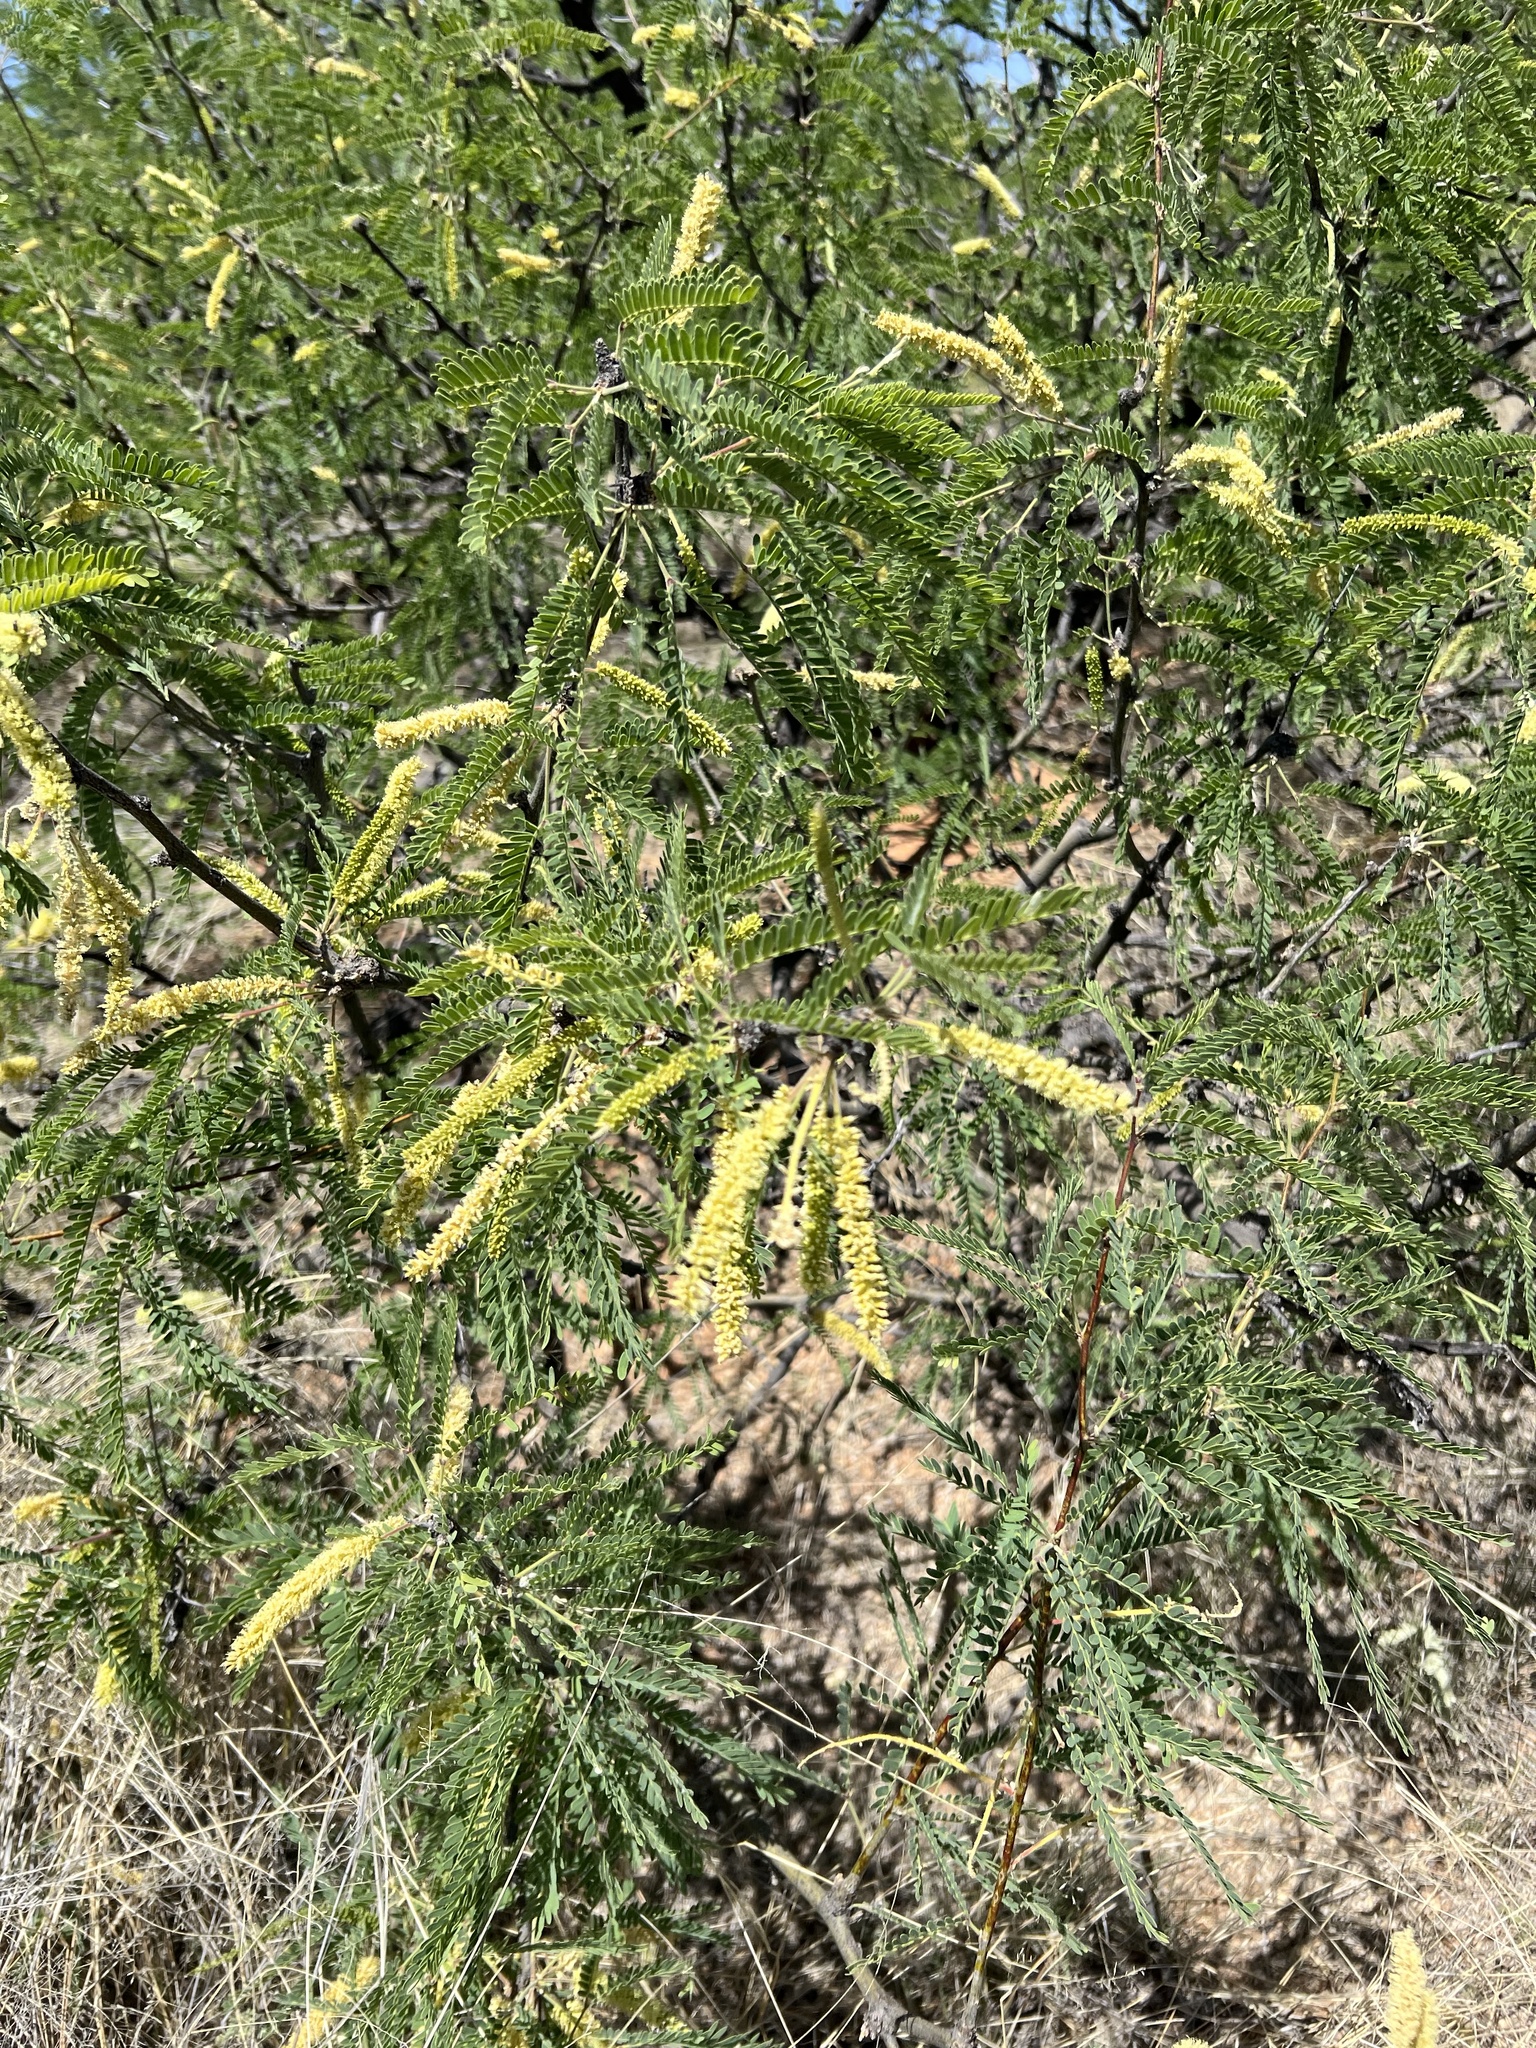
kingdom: Plantae
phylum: Tracheophyta
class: Magnoliopsida
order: Fabales
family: Fabaceae
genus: Prosopis
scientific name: Prosopis velutina
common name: Velvet mesquite
